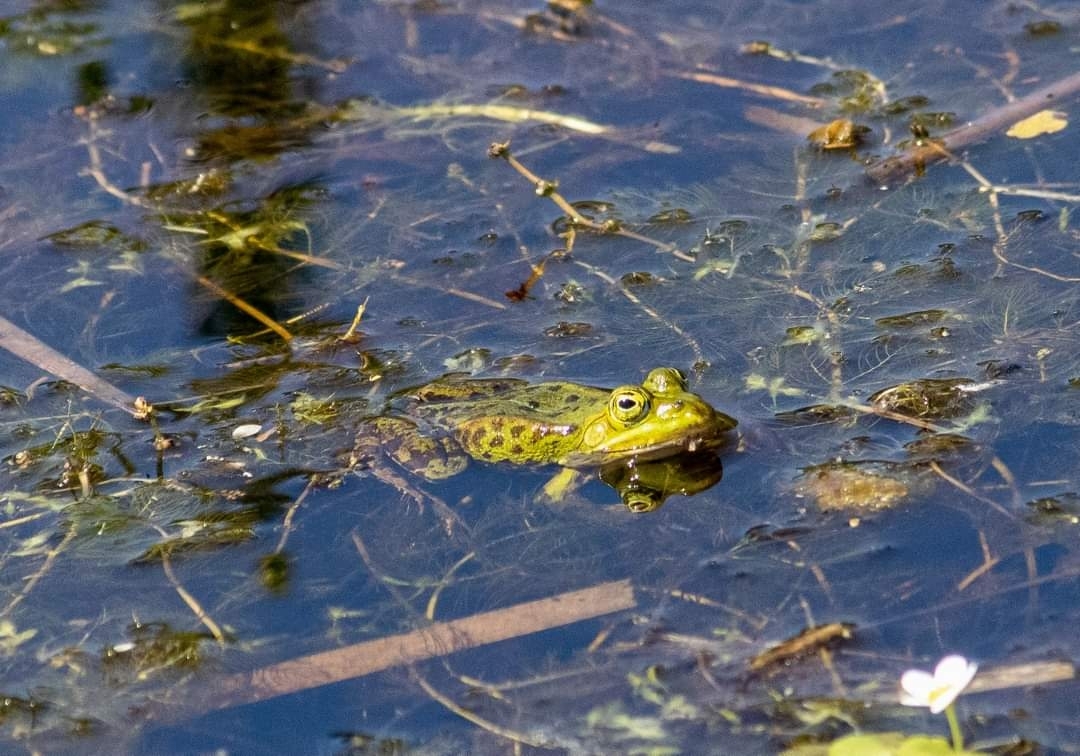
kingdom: Animalia
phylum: Chordata
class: Amphibia
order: Anura
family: Ranidae
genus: Pelophylax
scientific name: Pelophylax lessonae
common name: Pool frog
